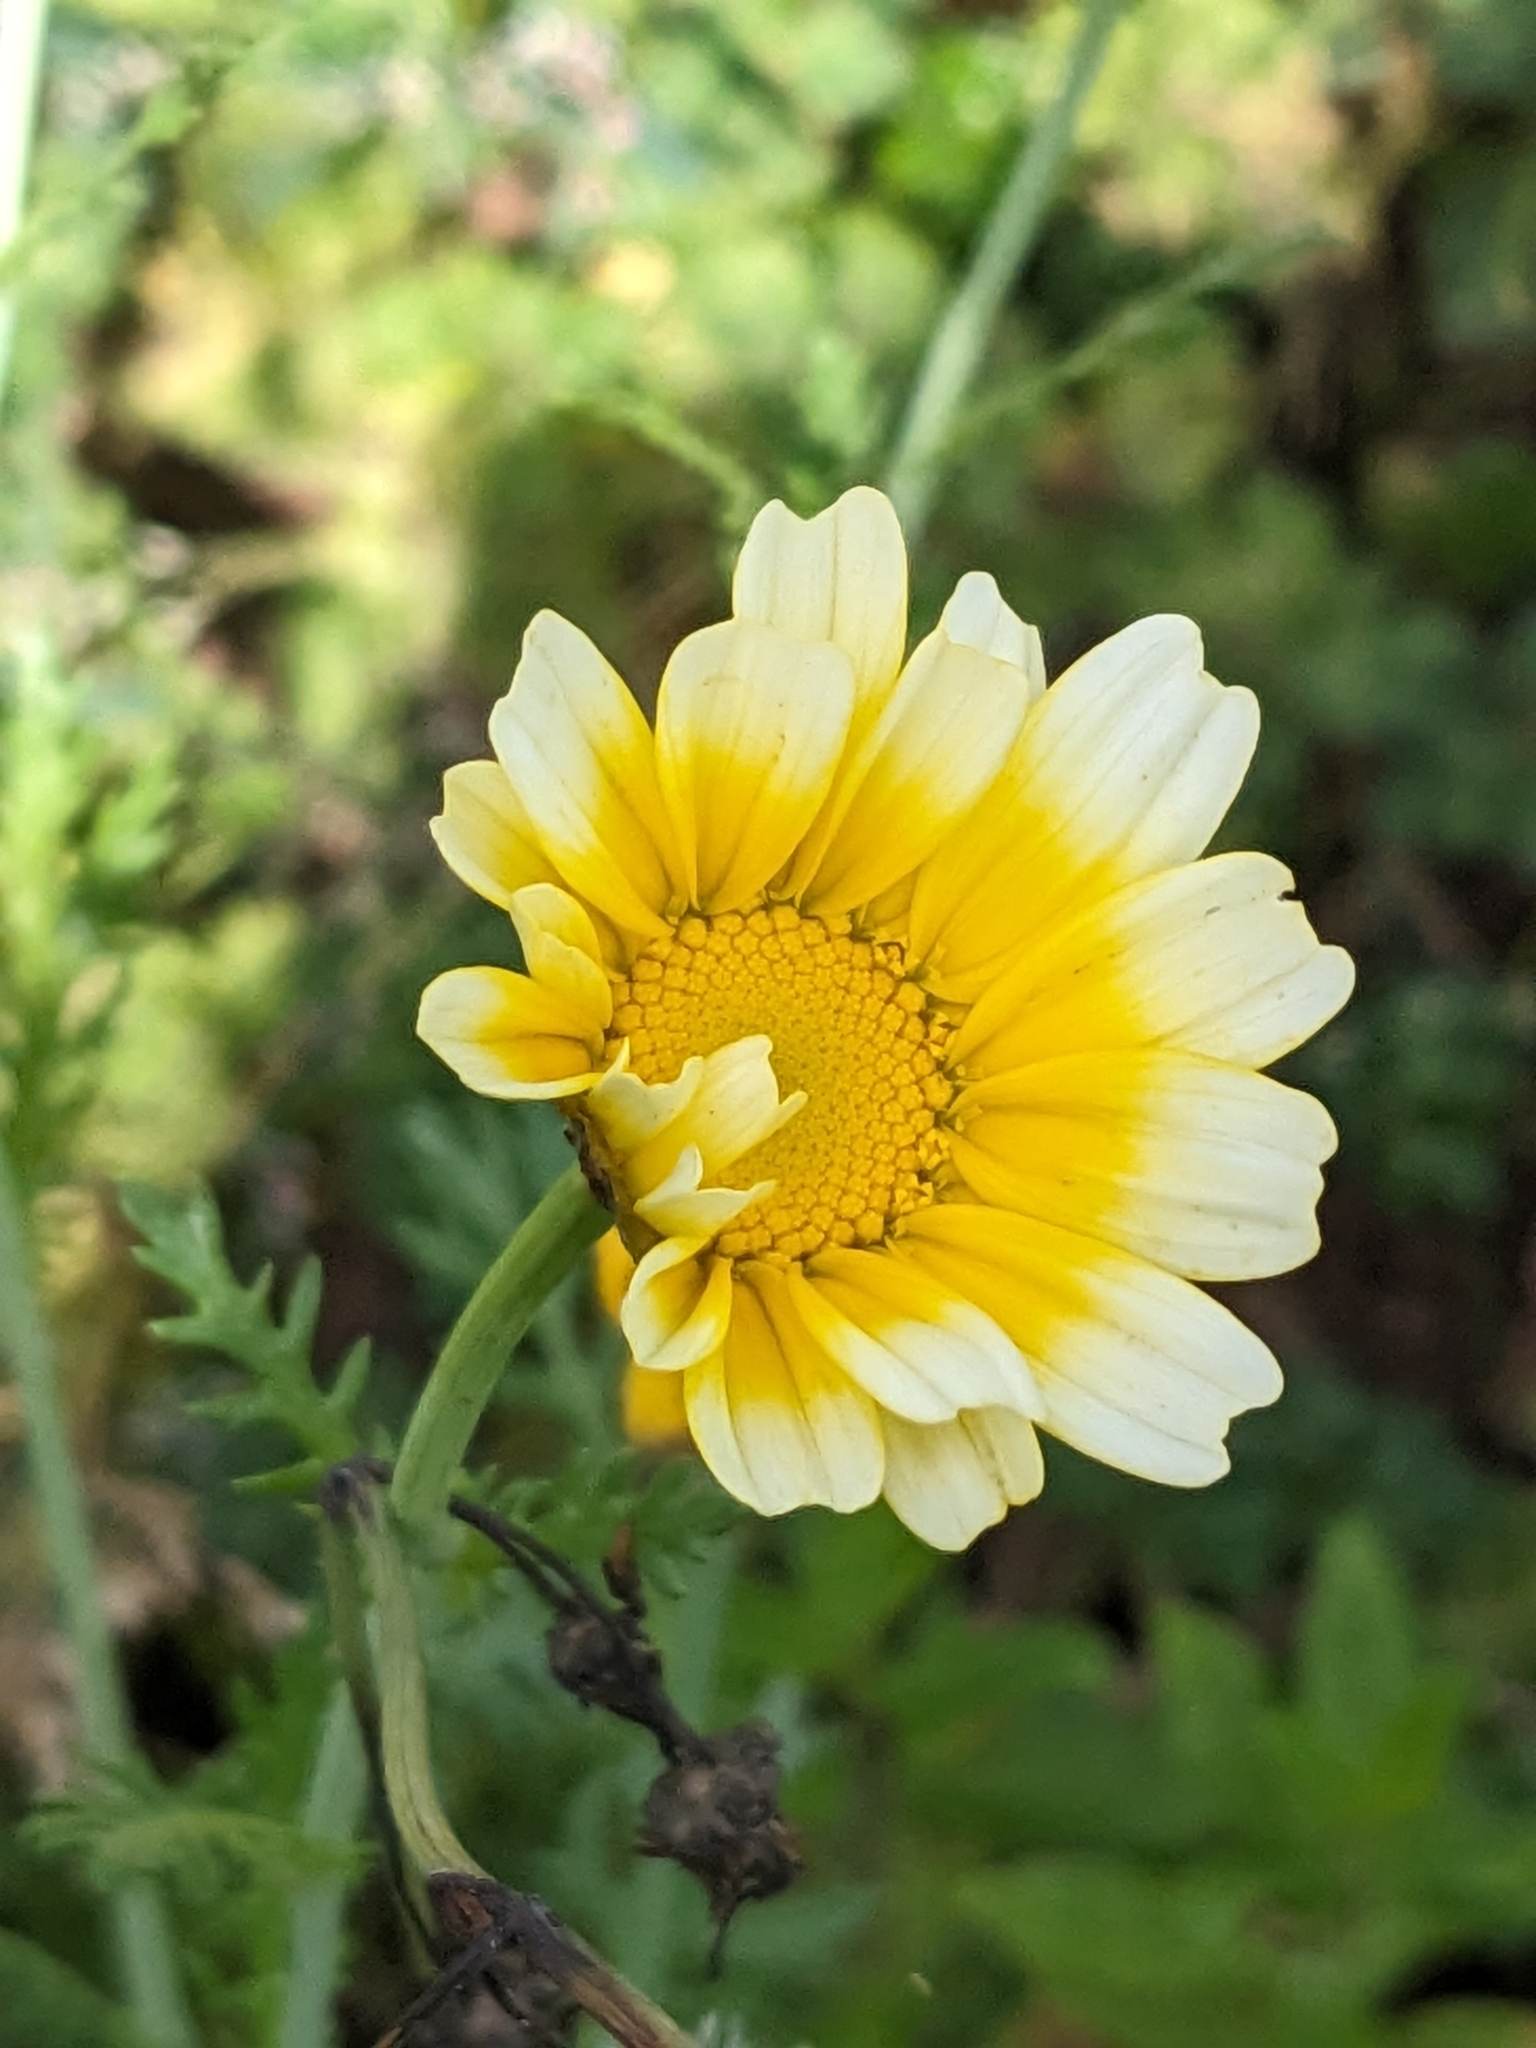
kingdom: Plantae
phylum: Tracheophyta
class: Magnoliopsida
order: Asterales
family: Asteraceae
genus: Glebionis
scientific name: Glebionis coronaria
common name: Crowndaisy
